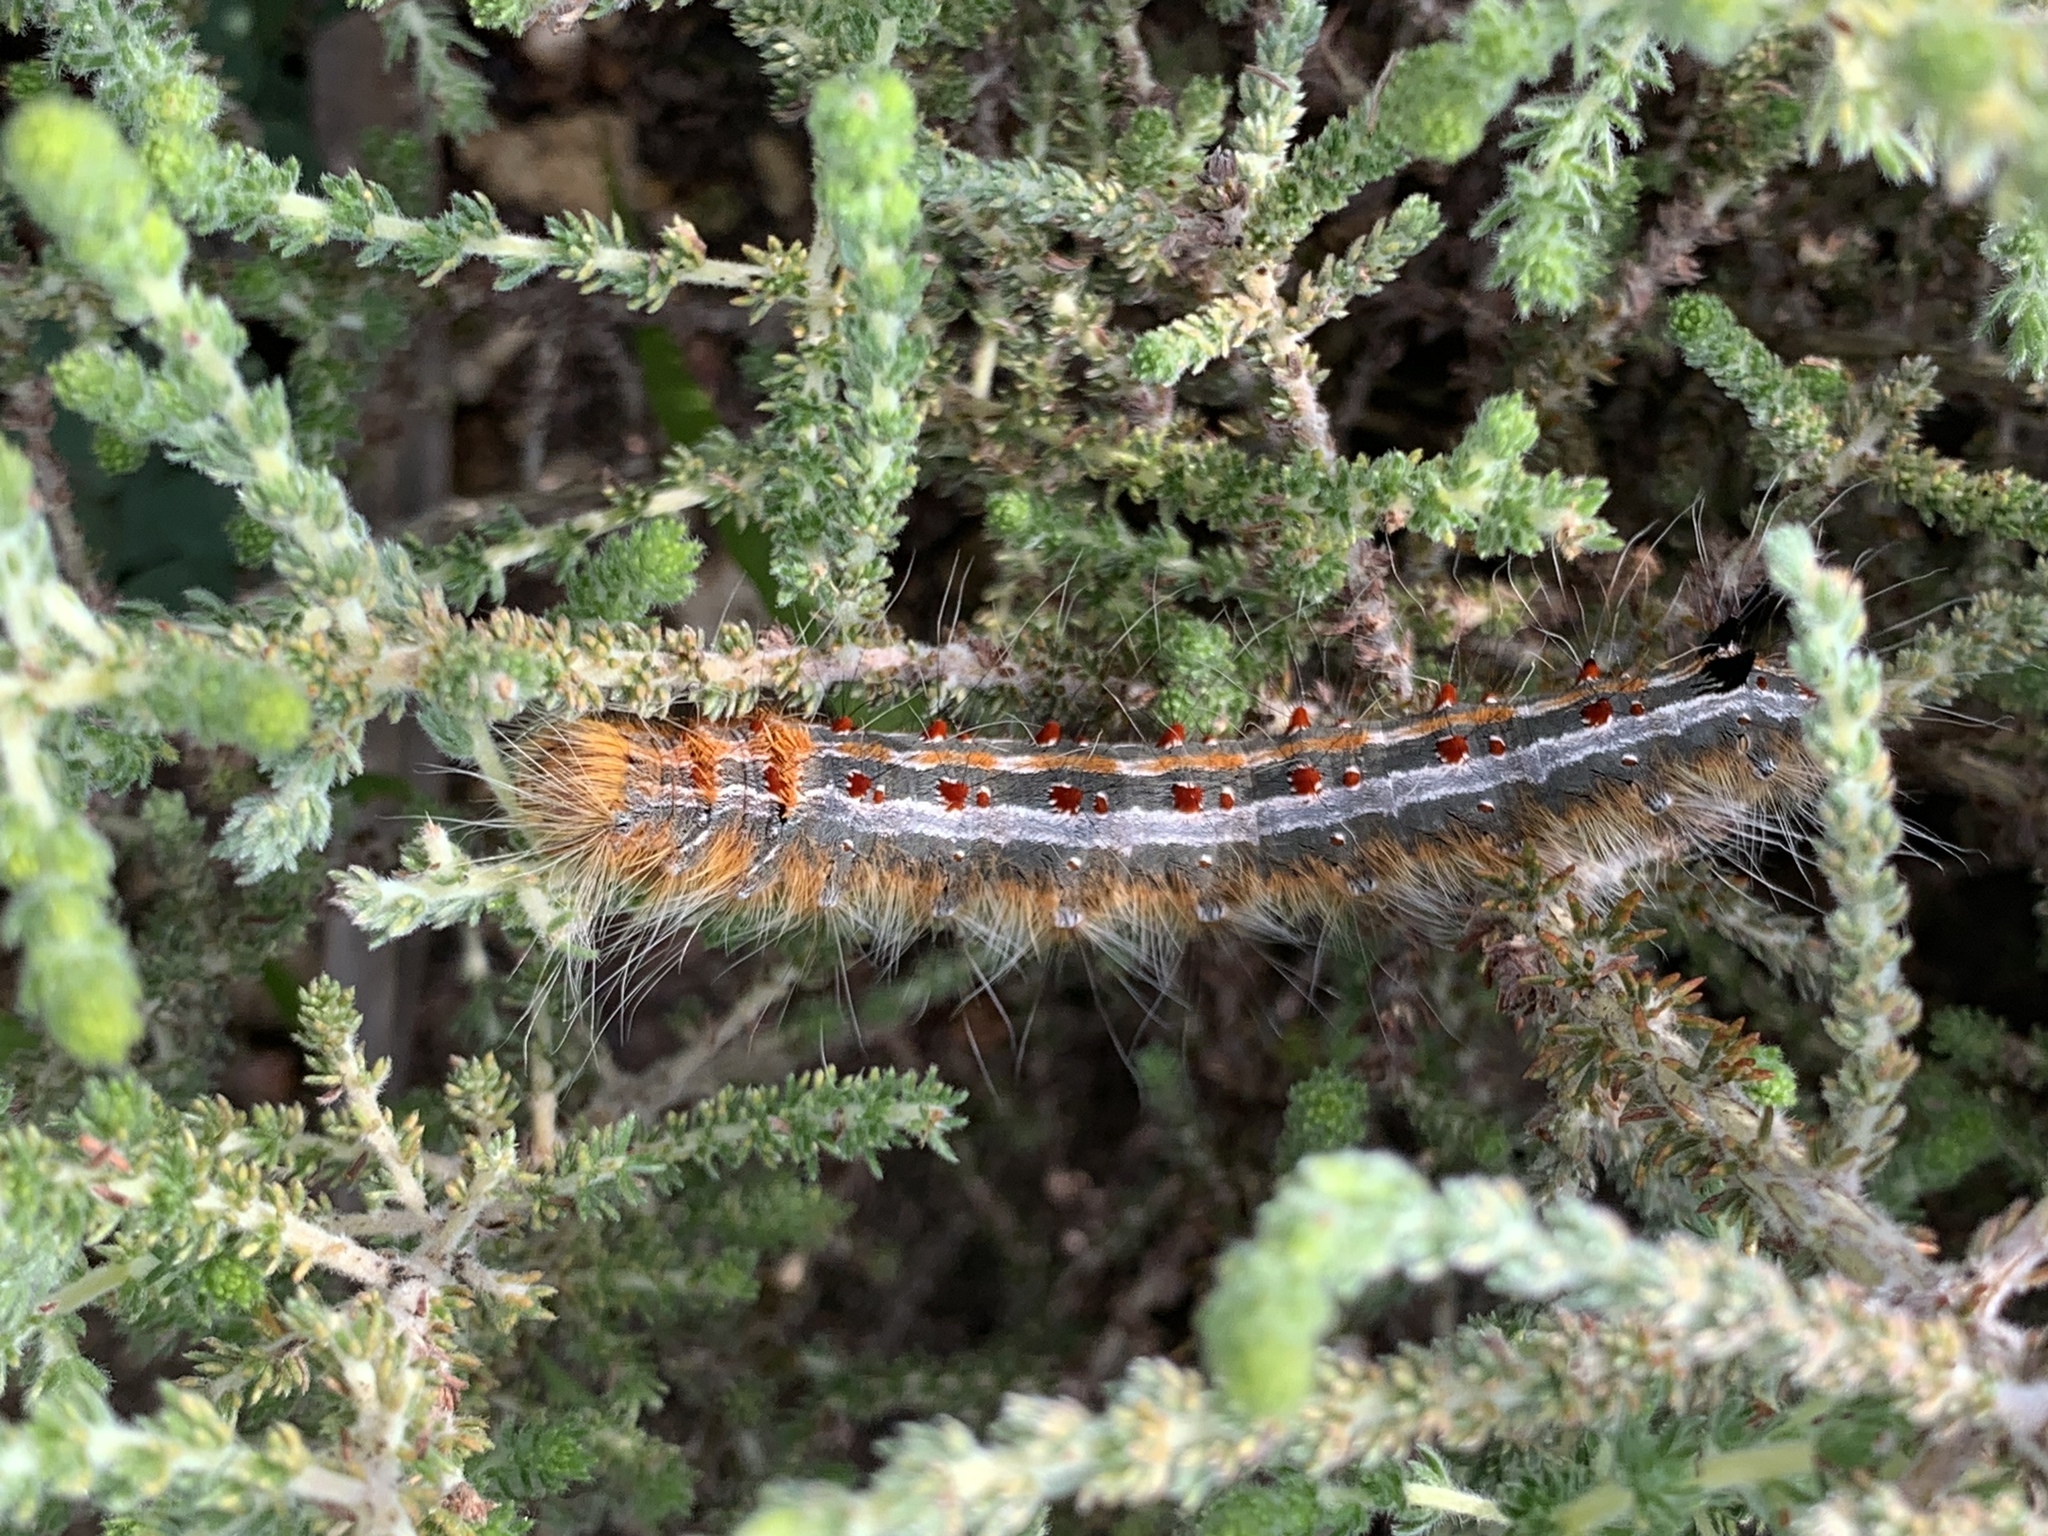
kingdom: Animalia
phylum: Arthropoda
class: Insecta
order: Lepidoptera
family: Lasiocampidae
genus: Streblote
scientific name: Streblote cristata
